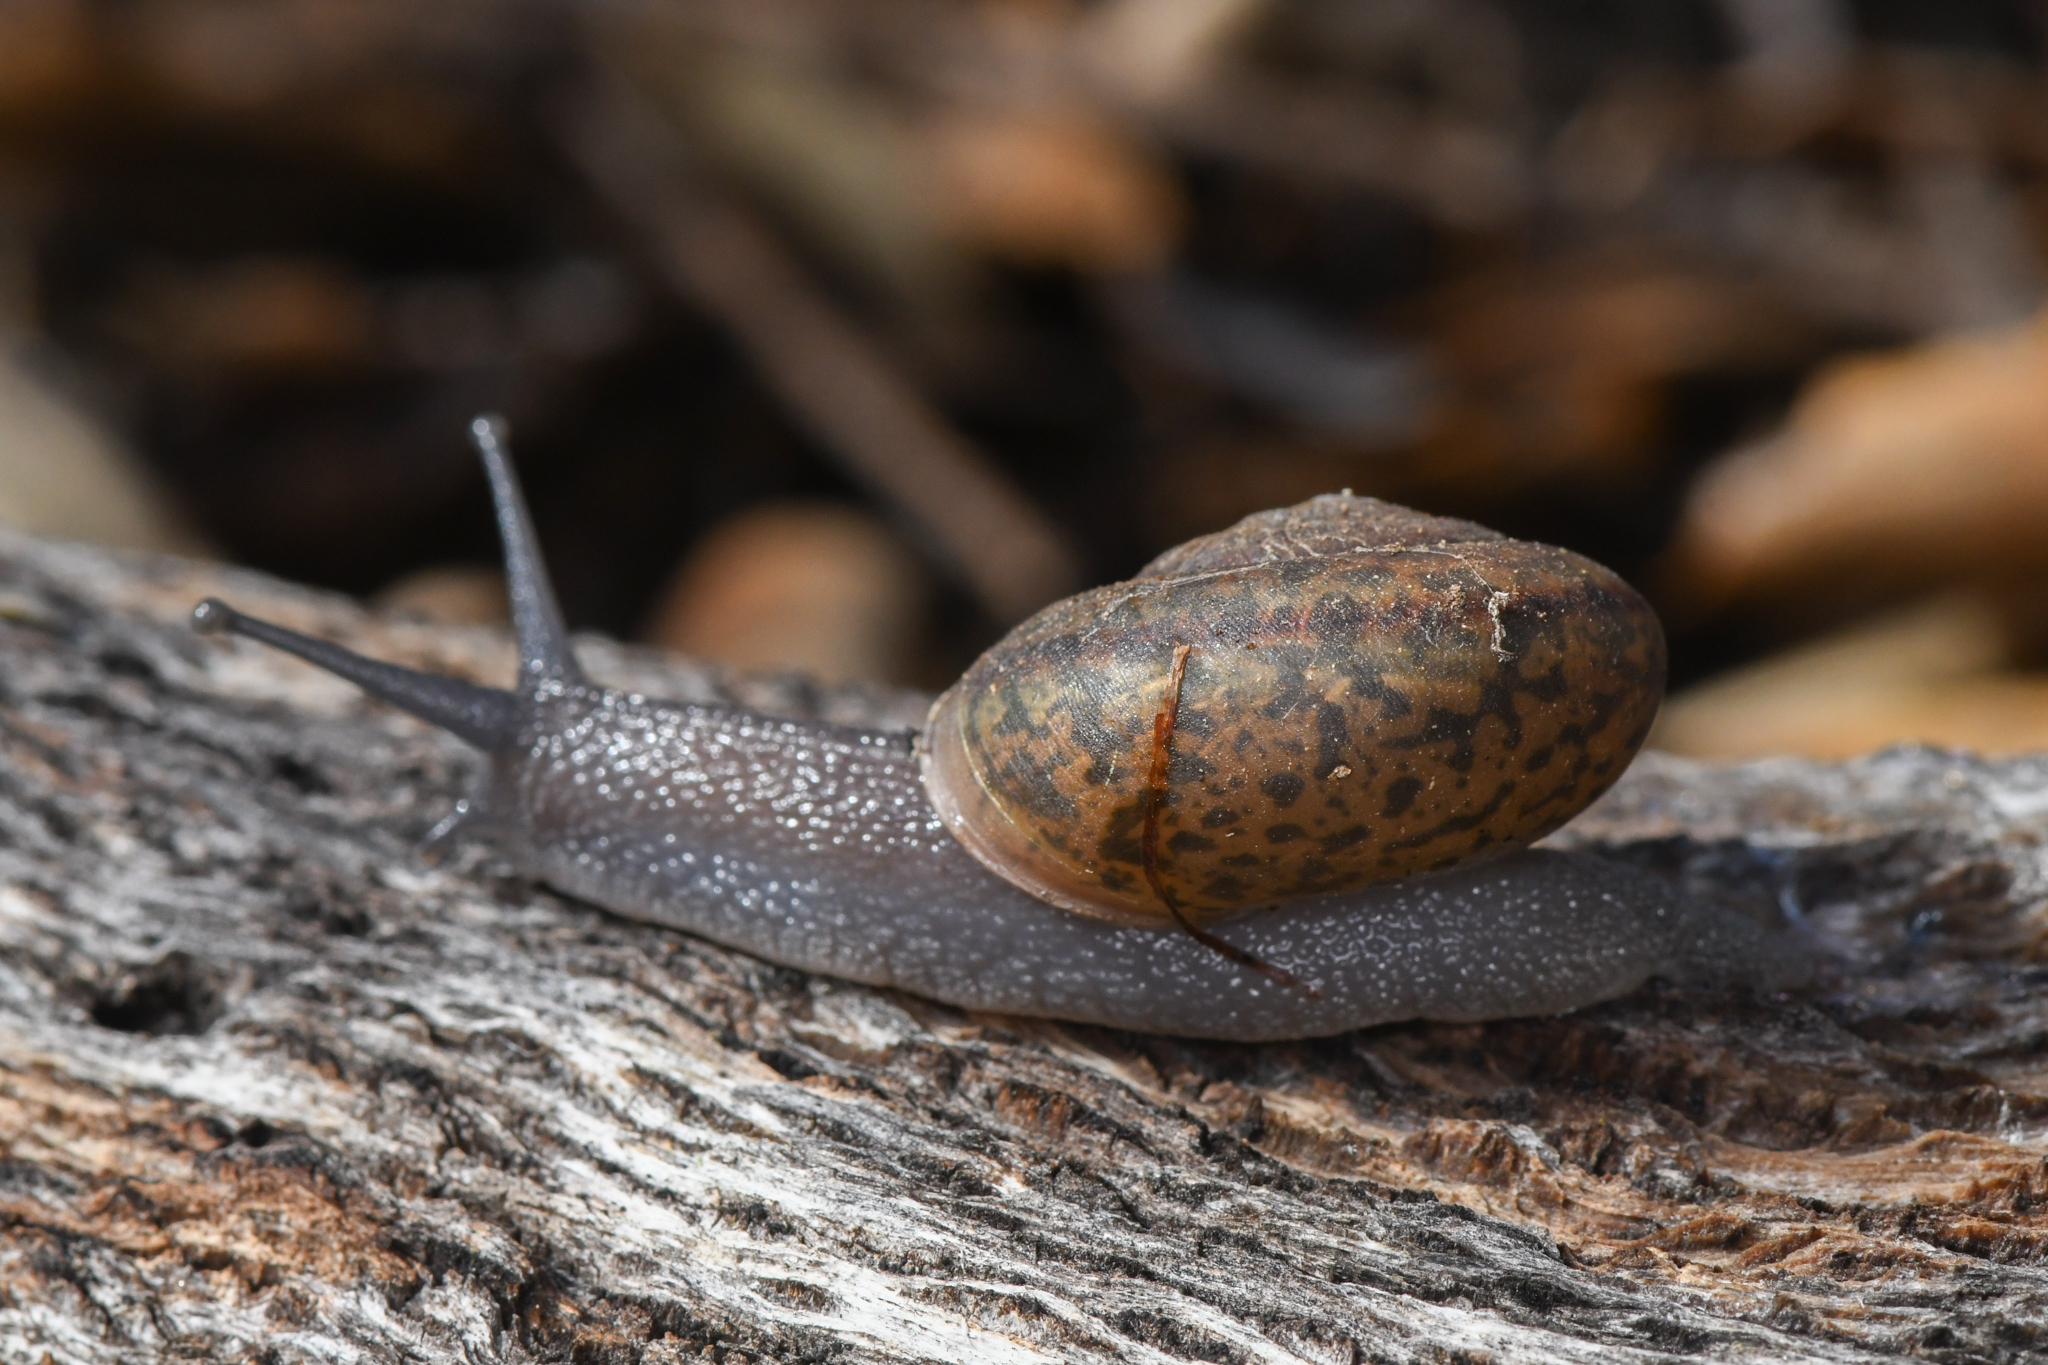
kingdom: Animalia
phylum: Mollusca
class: Gastropoda
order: Stylommatophora
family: Xanthonychidae
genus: Helminthoglypta
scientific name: Helminthoglypta edwardsi
